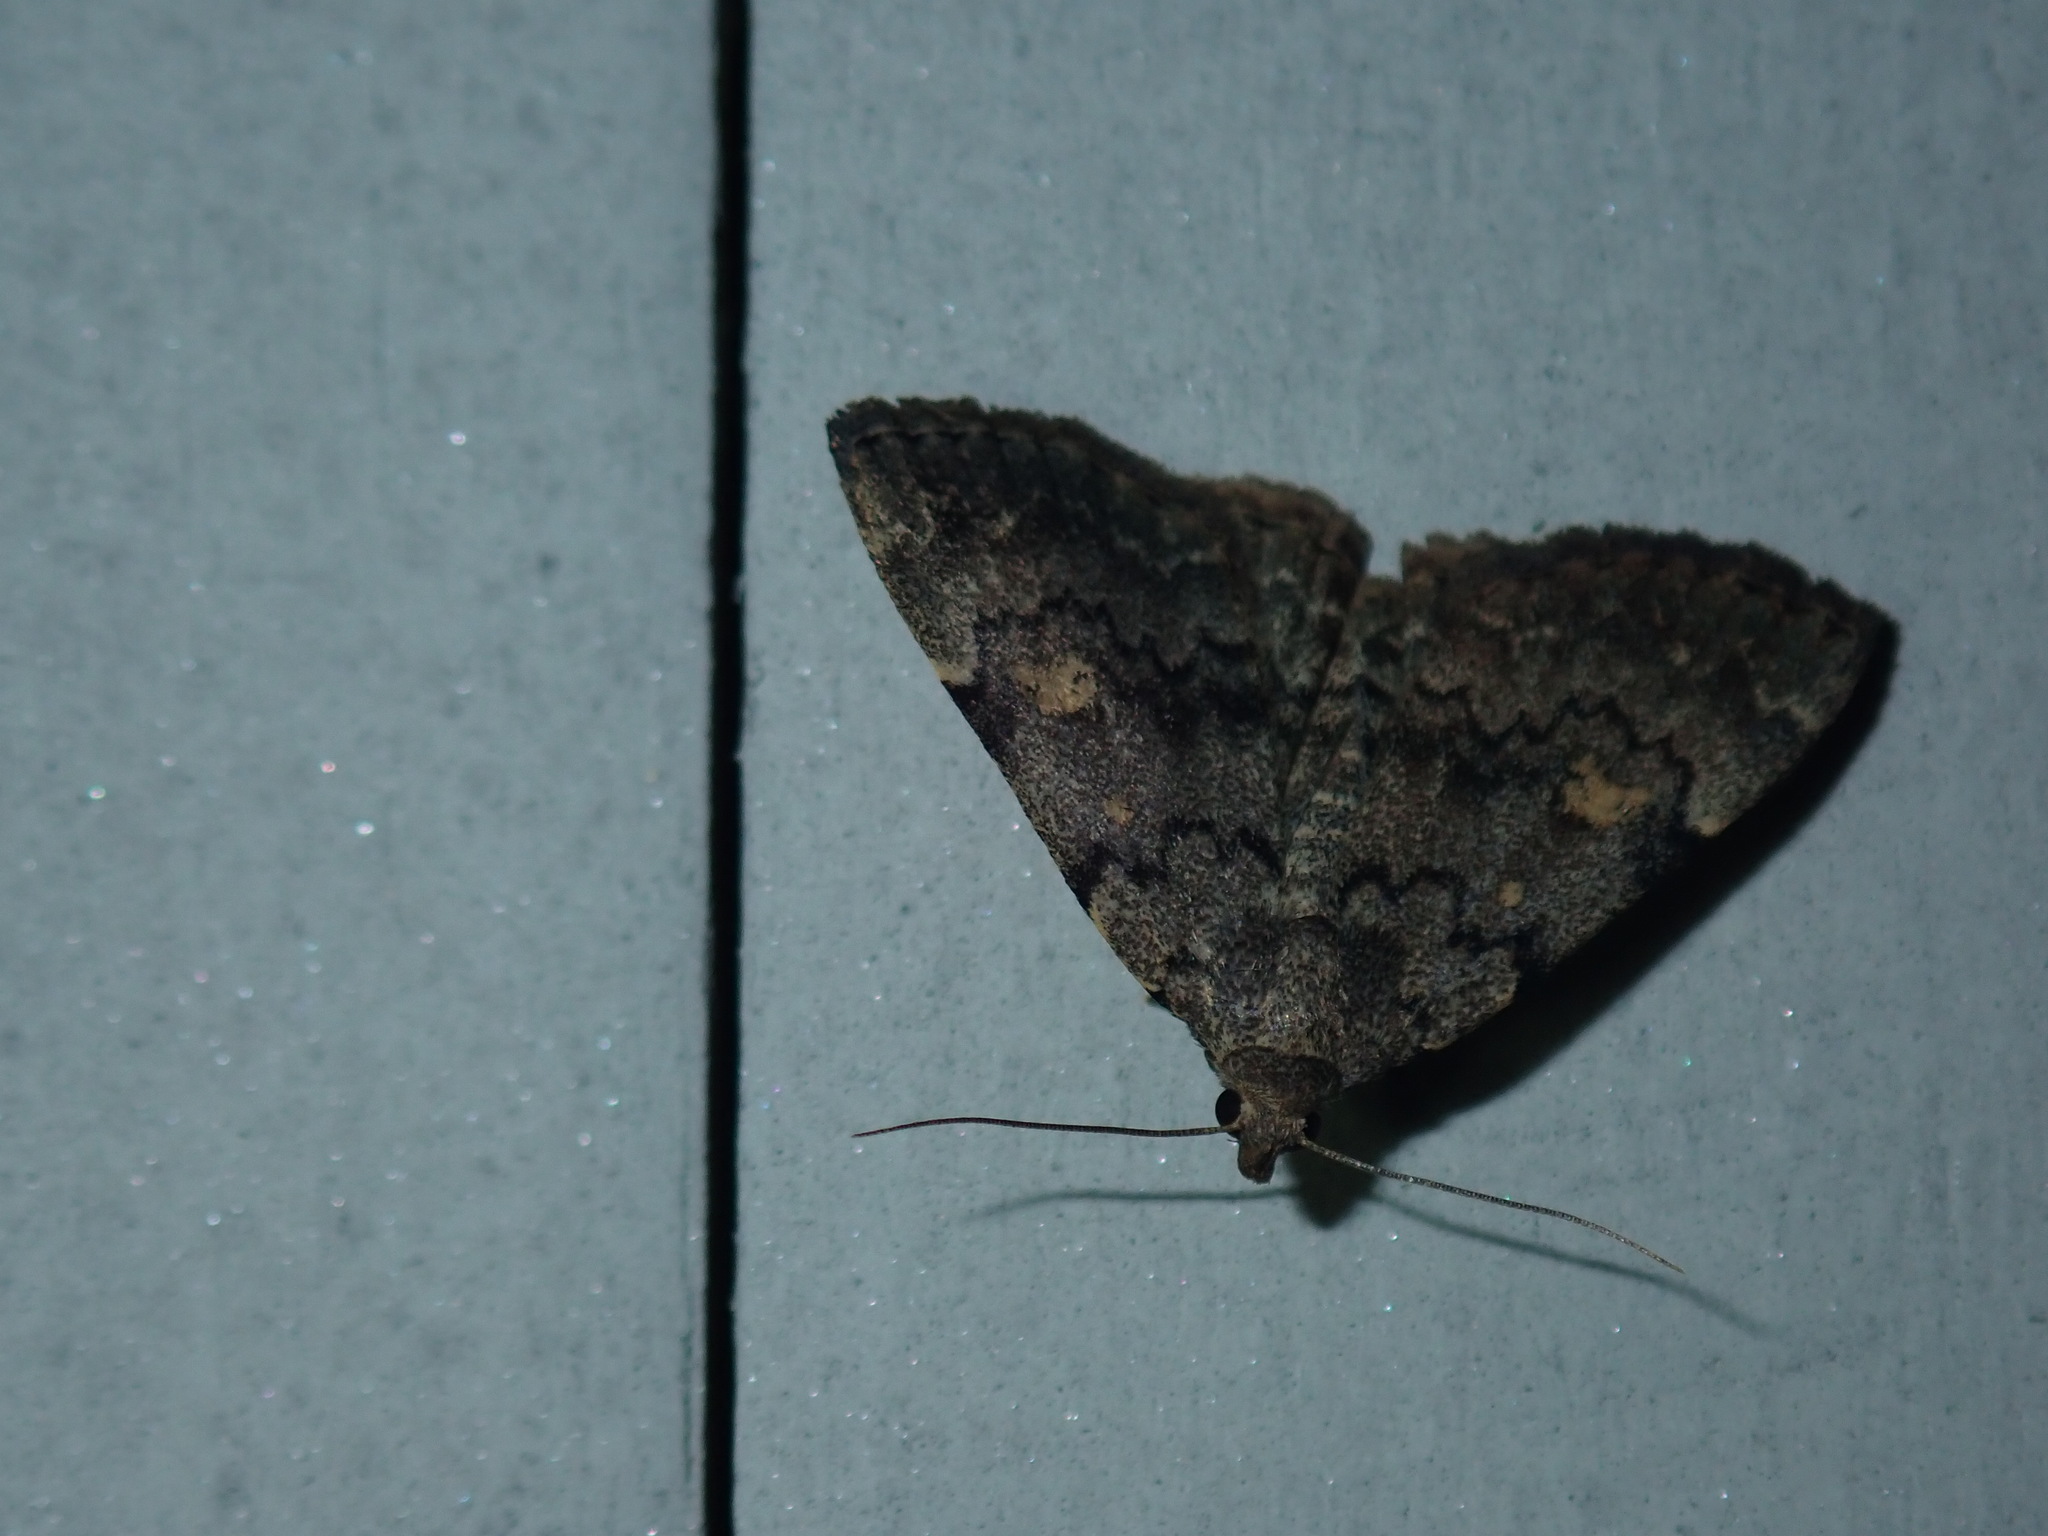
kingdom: Animalia
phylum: Arthropoda
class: Insecta
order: Lepidoptera
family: Erebidae
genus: Idia
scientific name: Idia aemula
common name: Common idia moth
